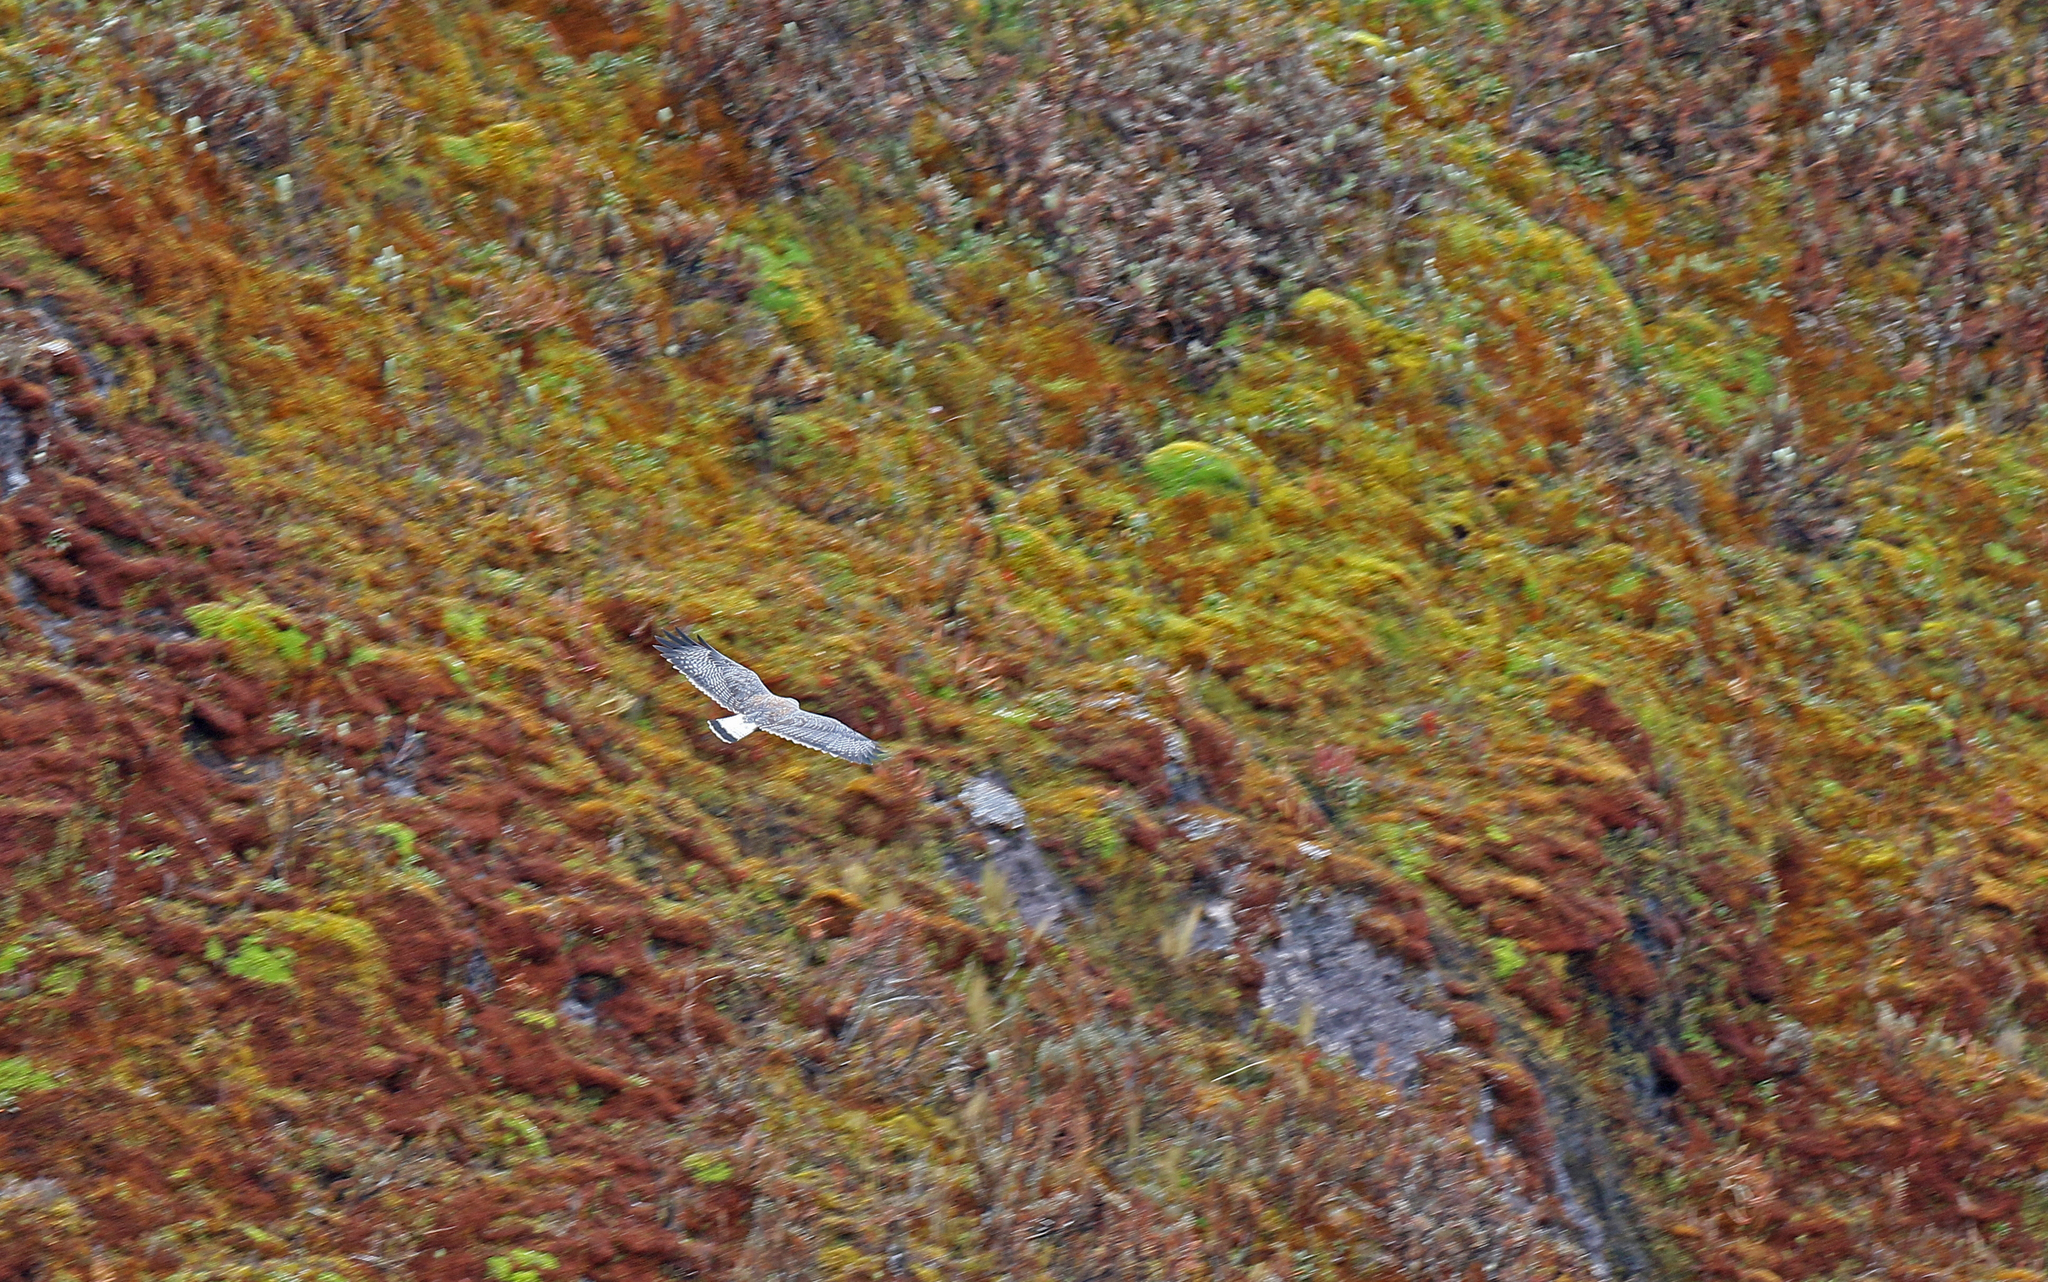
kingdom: Animalia
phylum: Chordata
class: Aves
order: Accipitriformes
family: Accipitridae
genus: Buteo
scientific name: Buteo polyosoma
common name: Variable hawk
